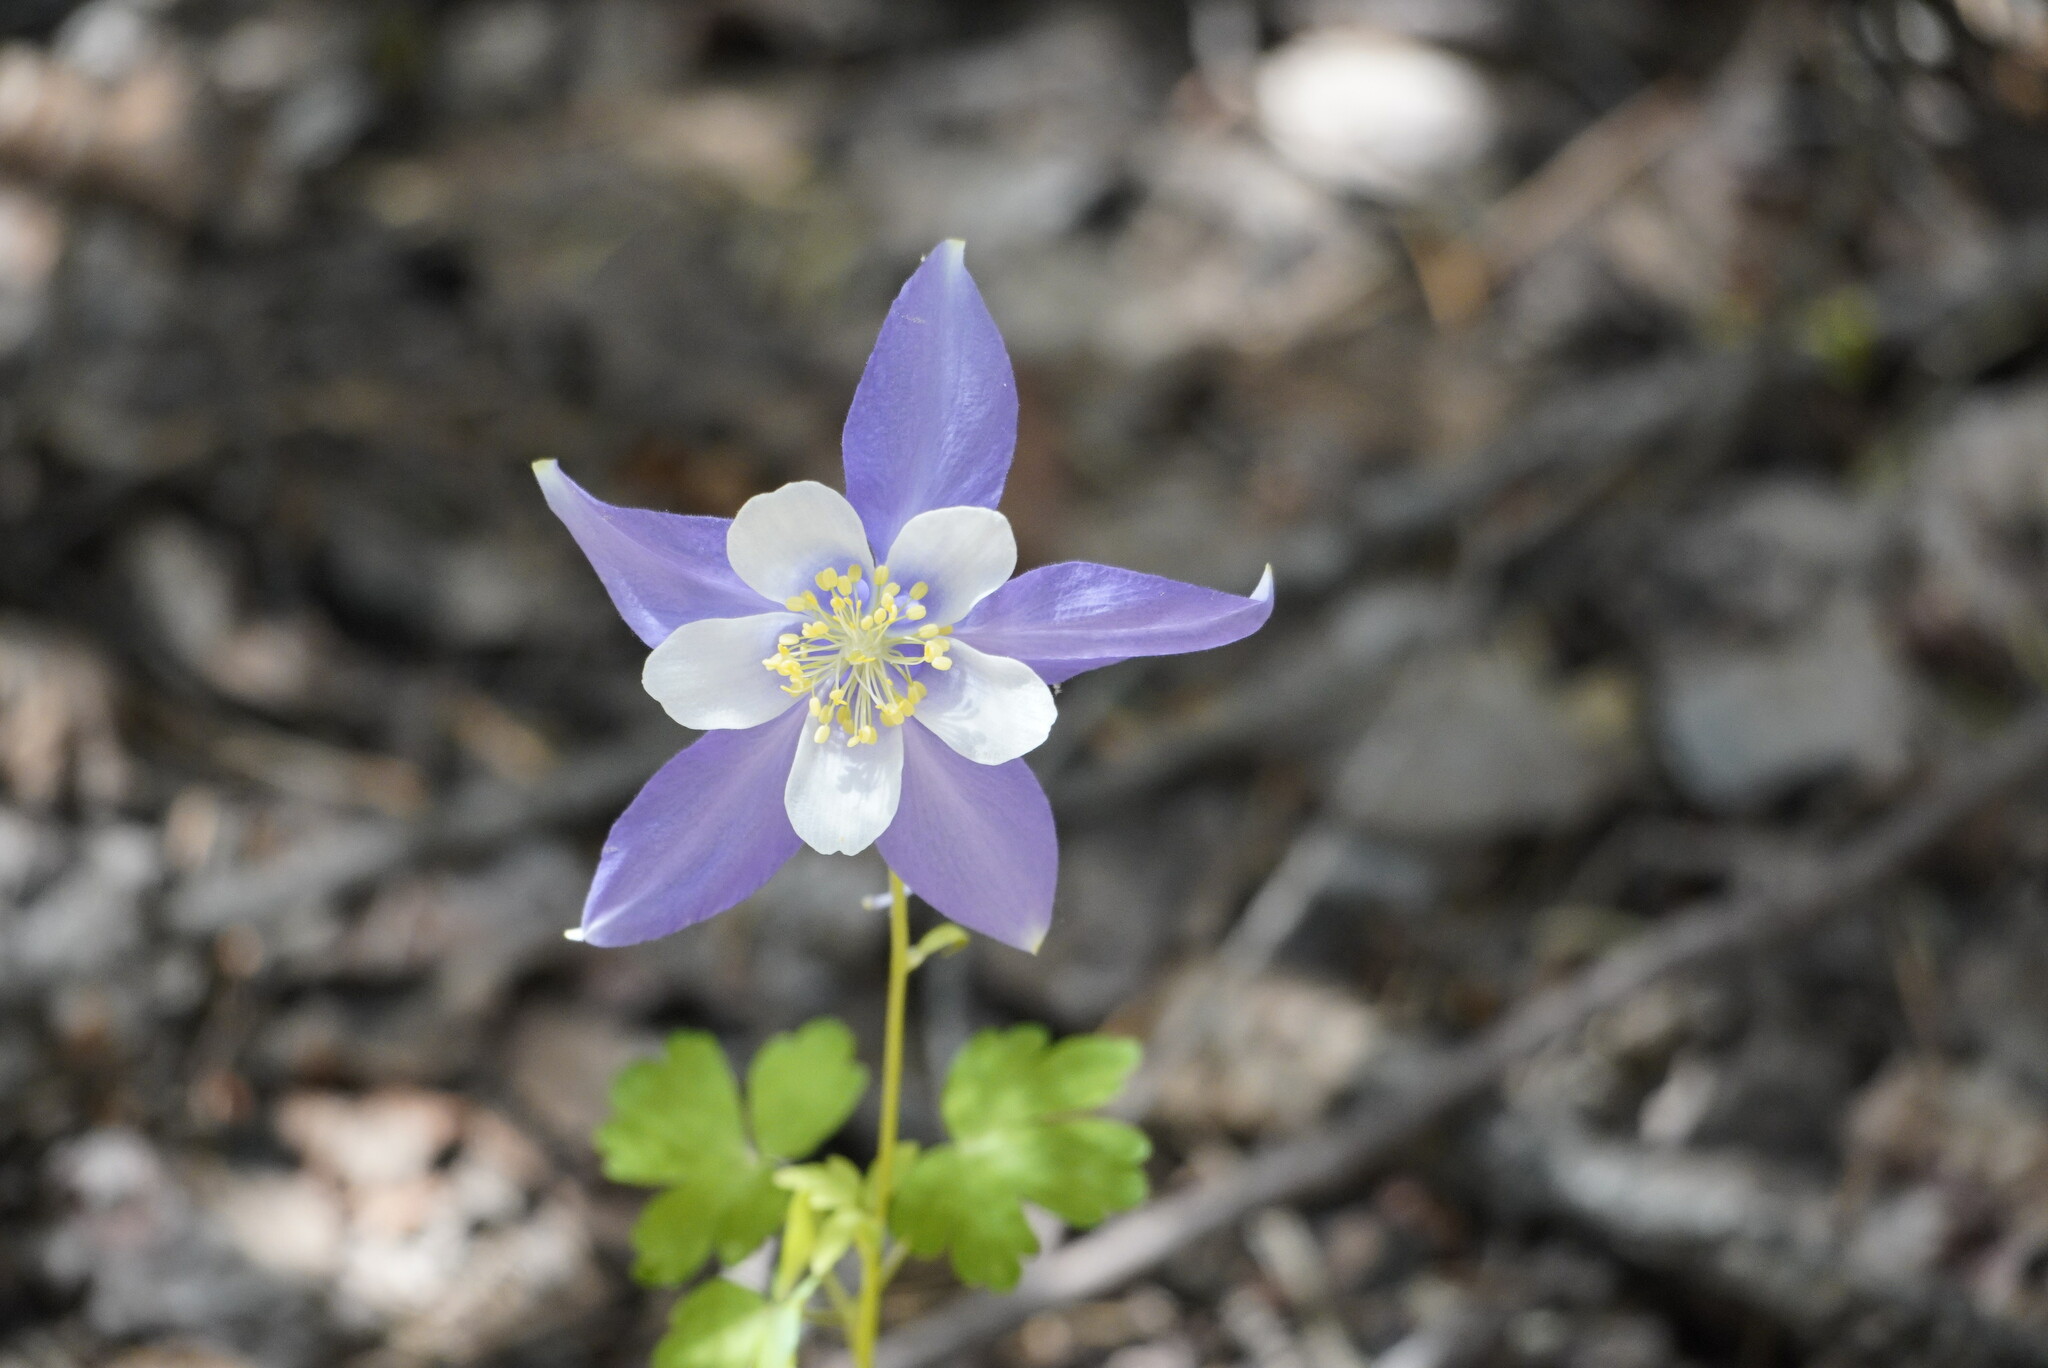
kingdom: Plantae
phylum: Tracheophyta
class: Magnoliopsida
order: Ranunculales
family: Ranunculaceae
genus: Aquilegia
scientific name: Aquilegia coerulea
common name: Rocky mountain columbine
